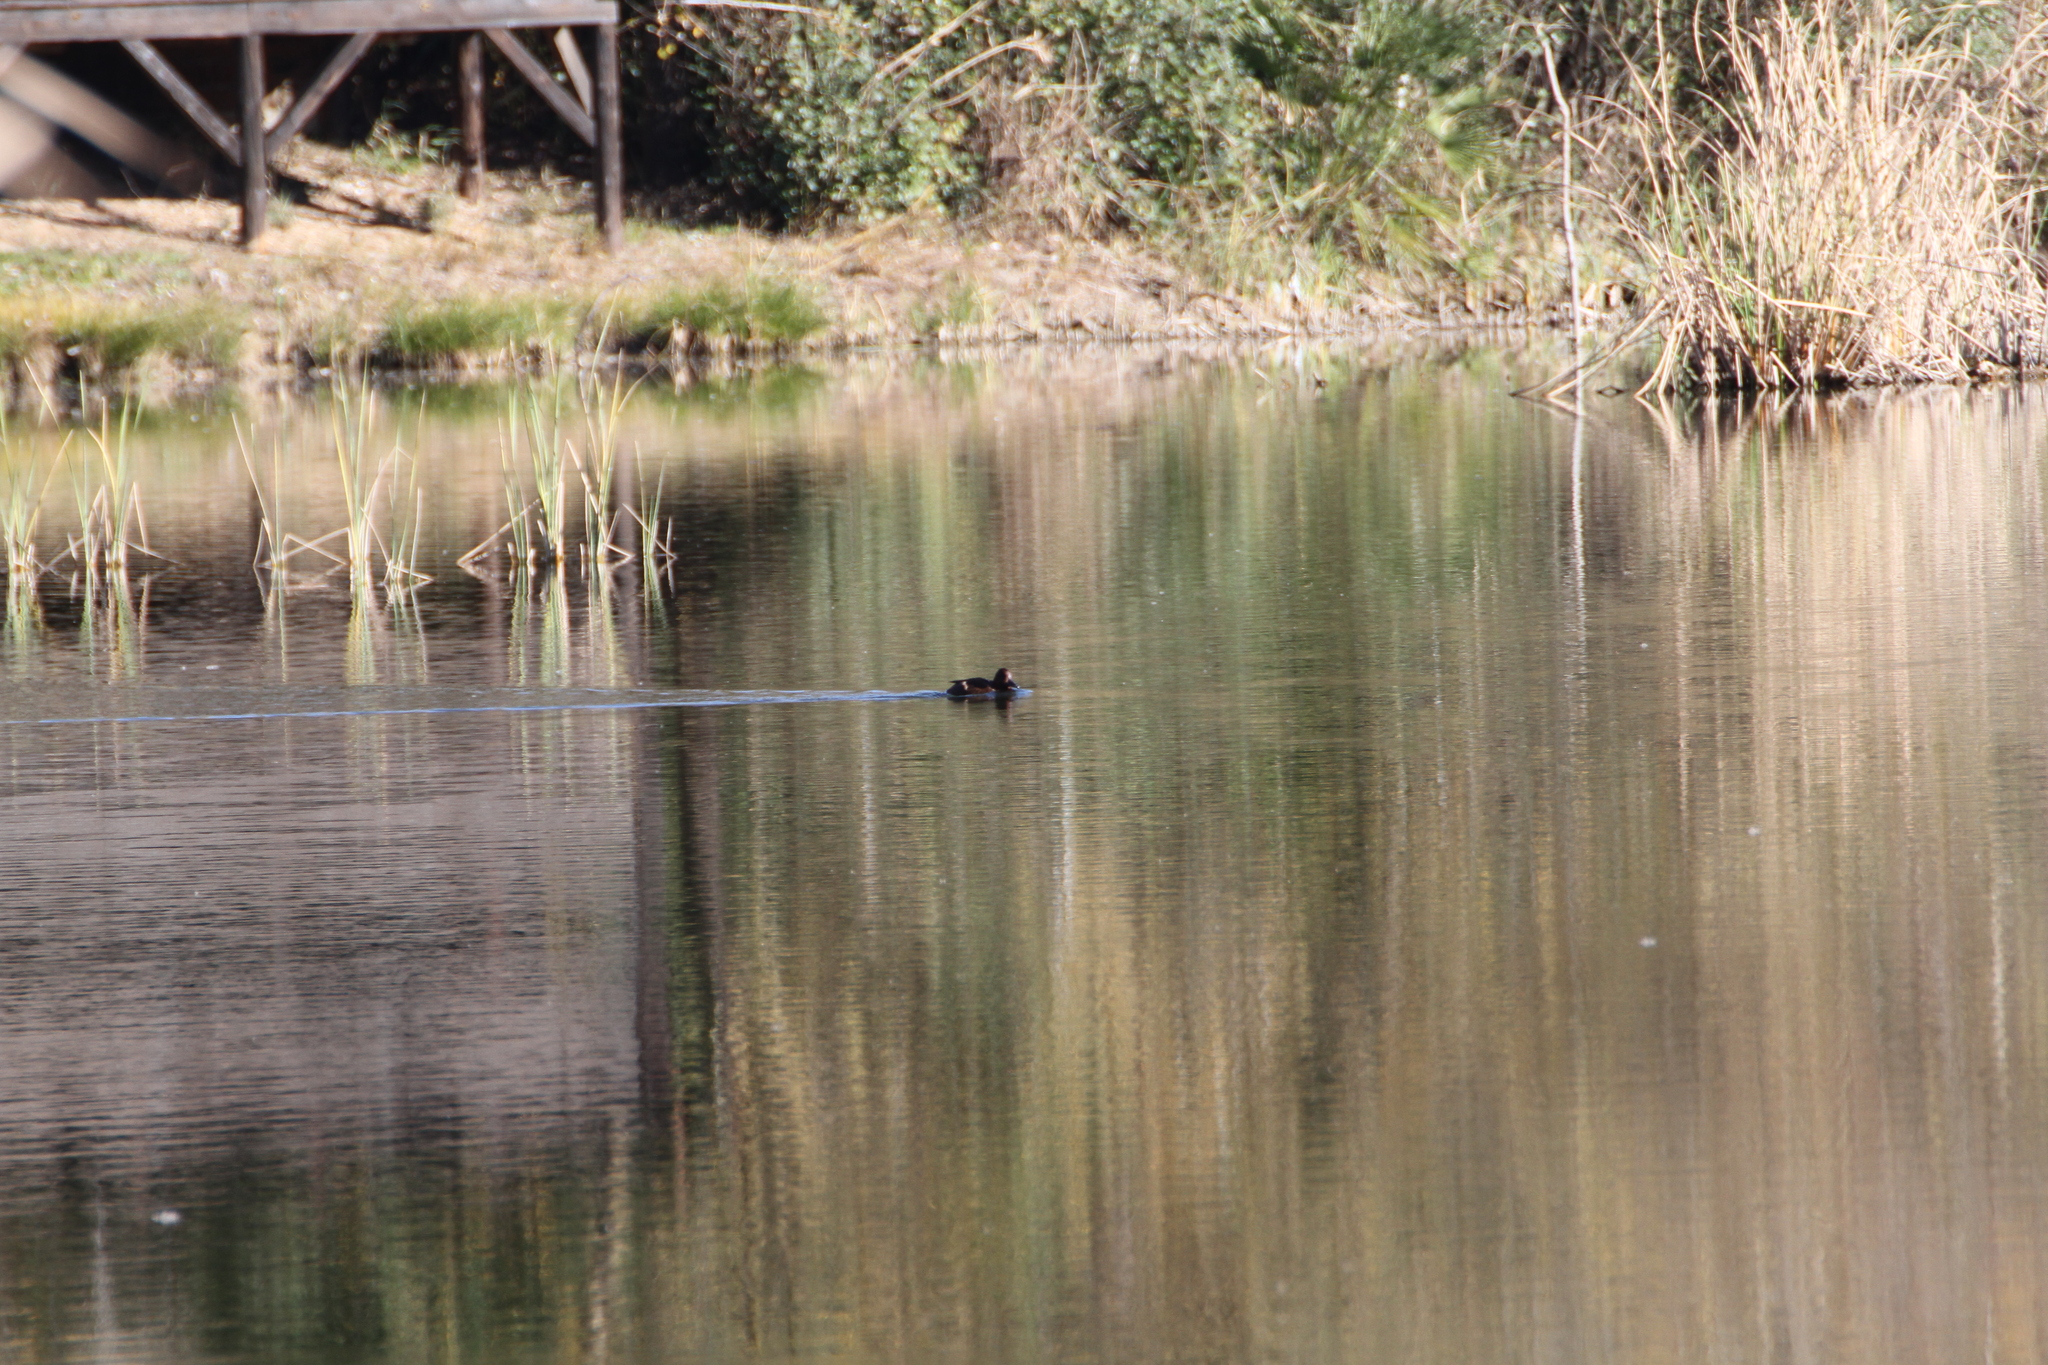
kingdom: Animalia
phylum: Chordata
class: Aves
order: Anseriformes
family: Anatidae
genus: Aythya
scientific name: Aythya nyroca
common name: Ferruginous duck
